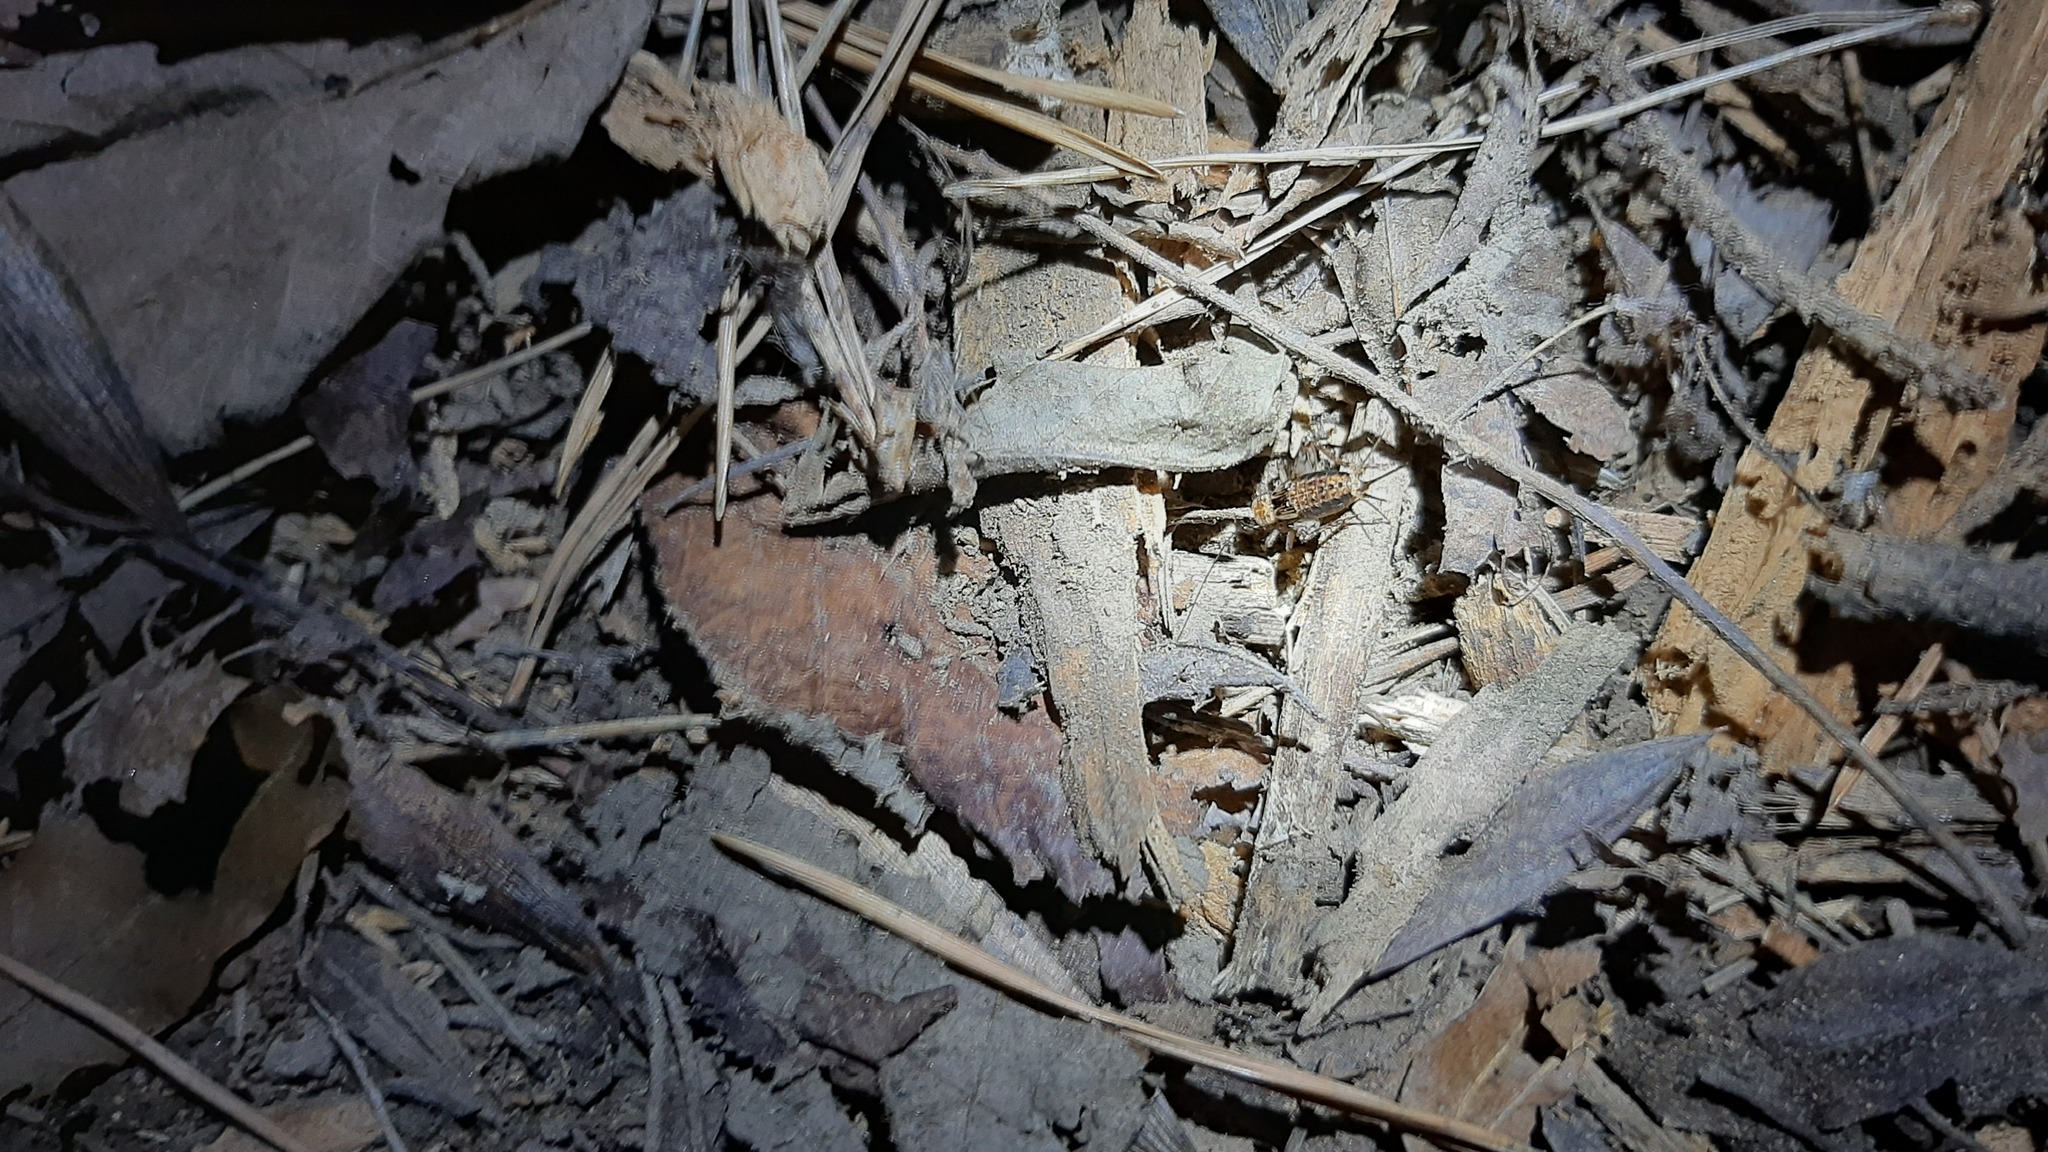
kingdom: Animalia
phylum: Arthropoda
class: Insecta
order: Orthoptera
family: Trigonidiidae
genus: Nemobius
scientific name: Nemobius sylvestris
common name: Wood-cricket
